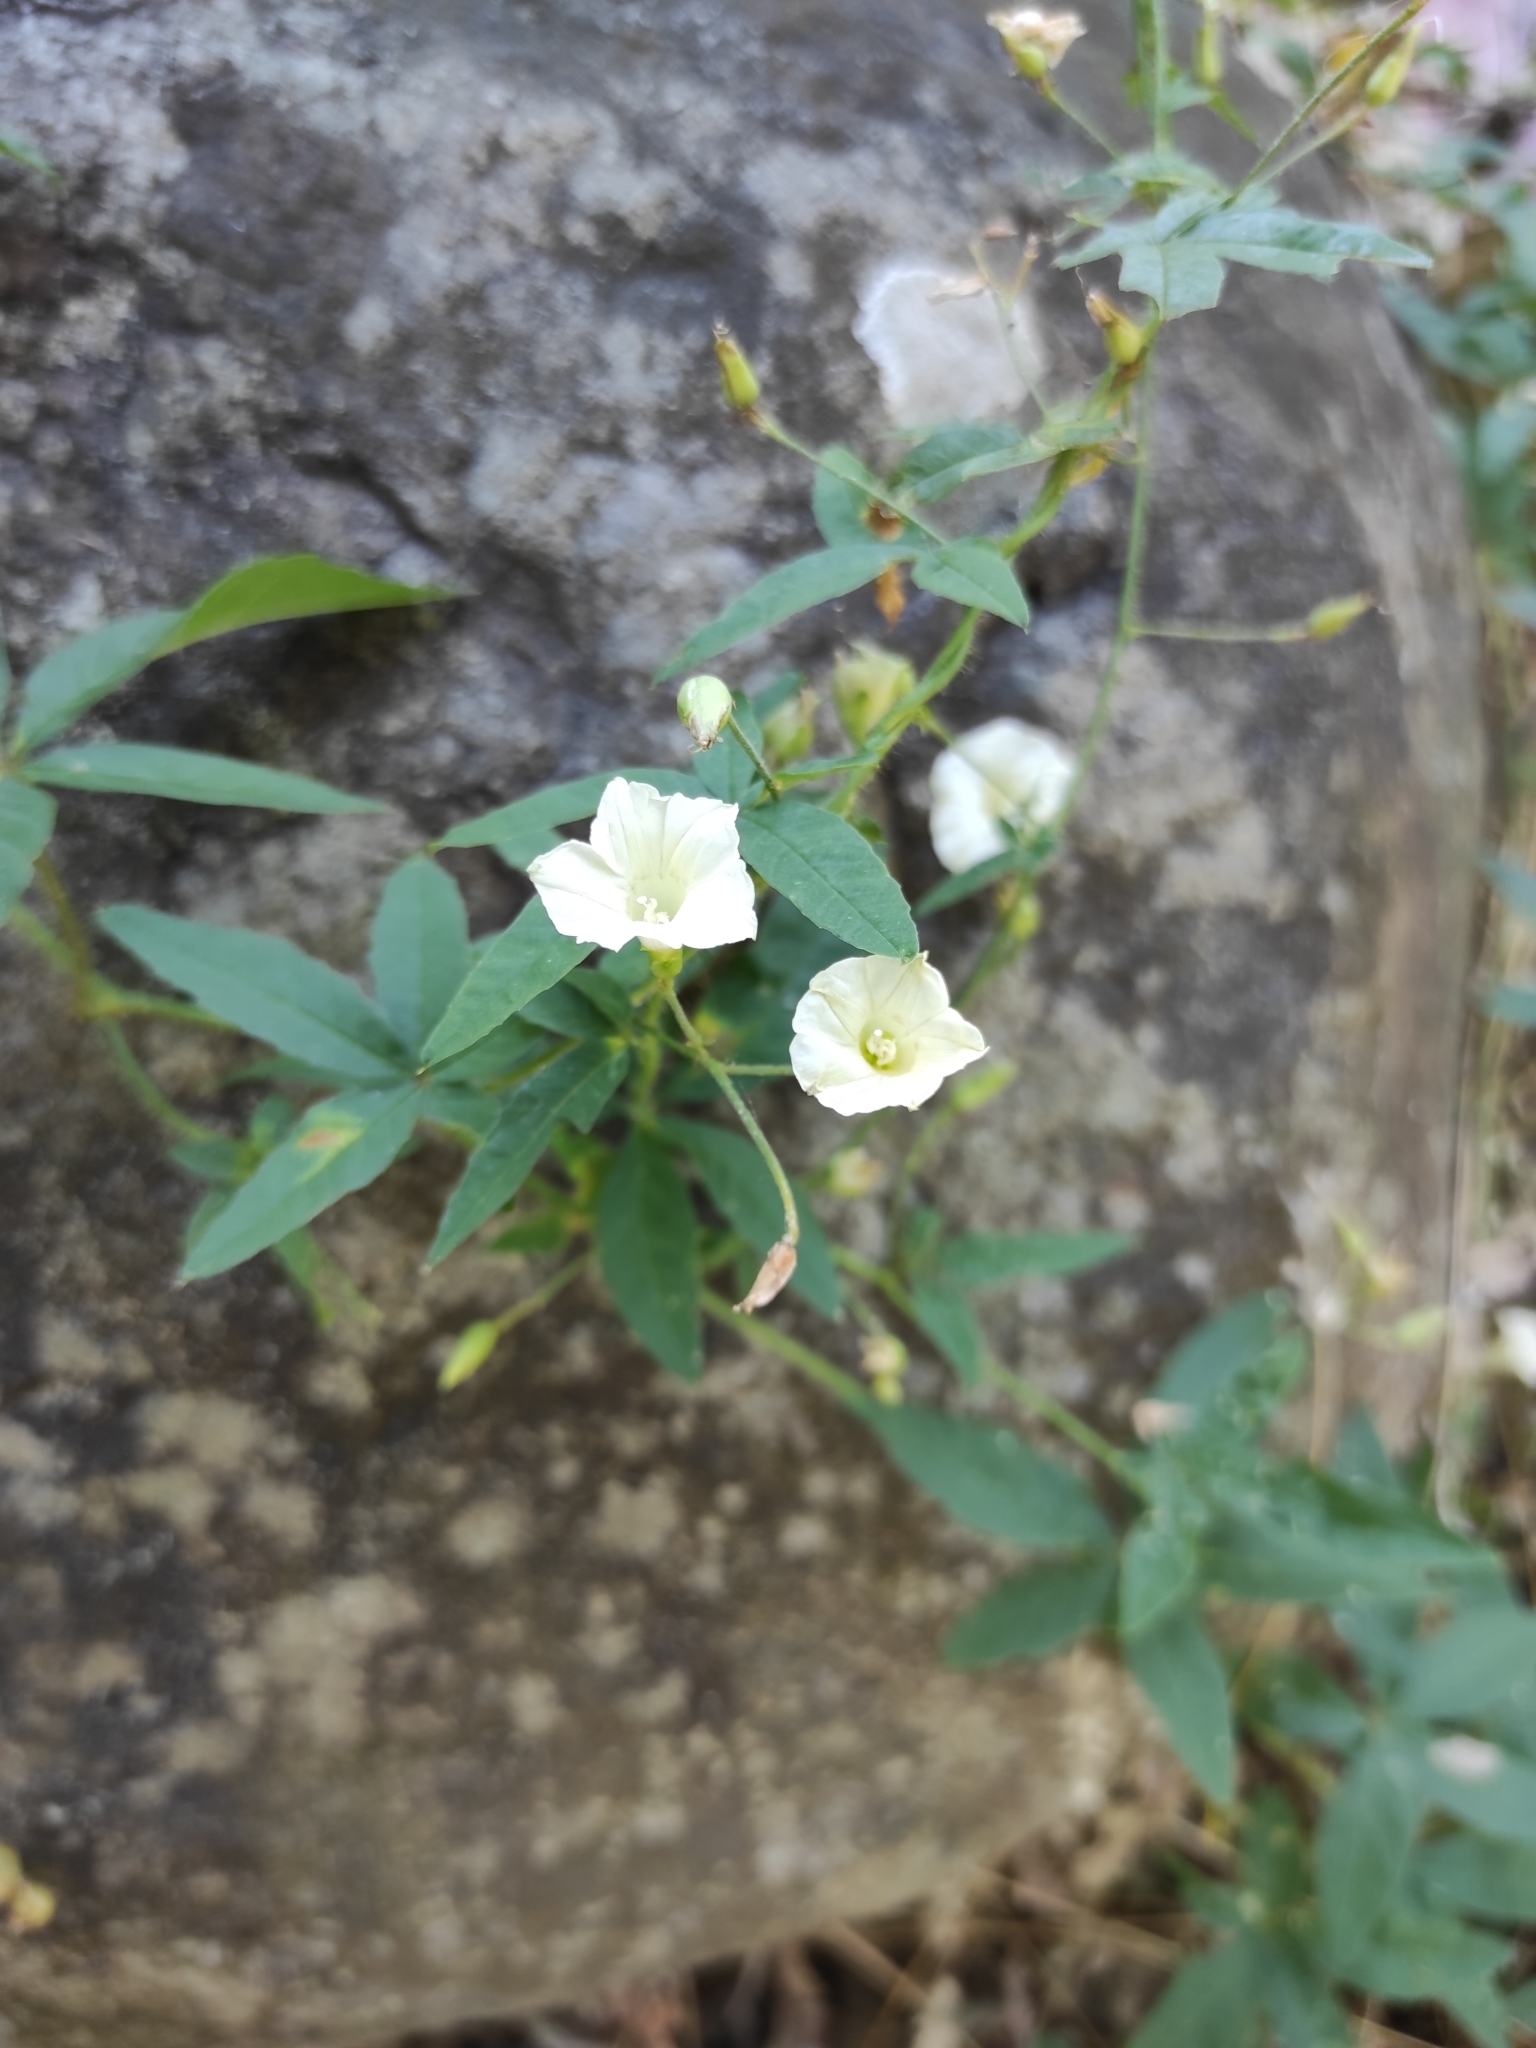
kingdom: Plantae
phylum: Tracheophyta
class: Magnoliopsida
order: Solanales
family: Convolvulaceae
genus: Distimake
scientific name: Distimake quinquefolius
